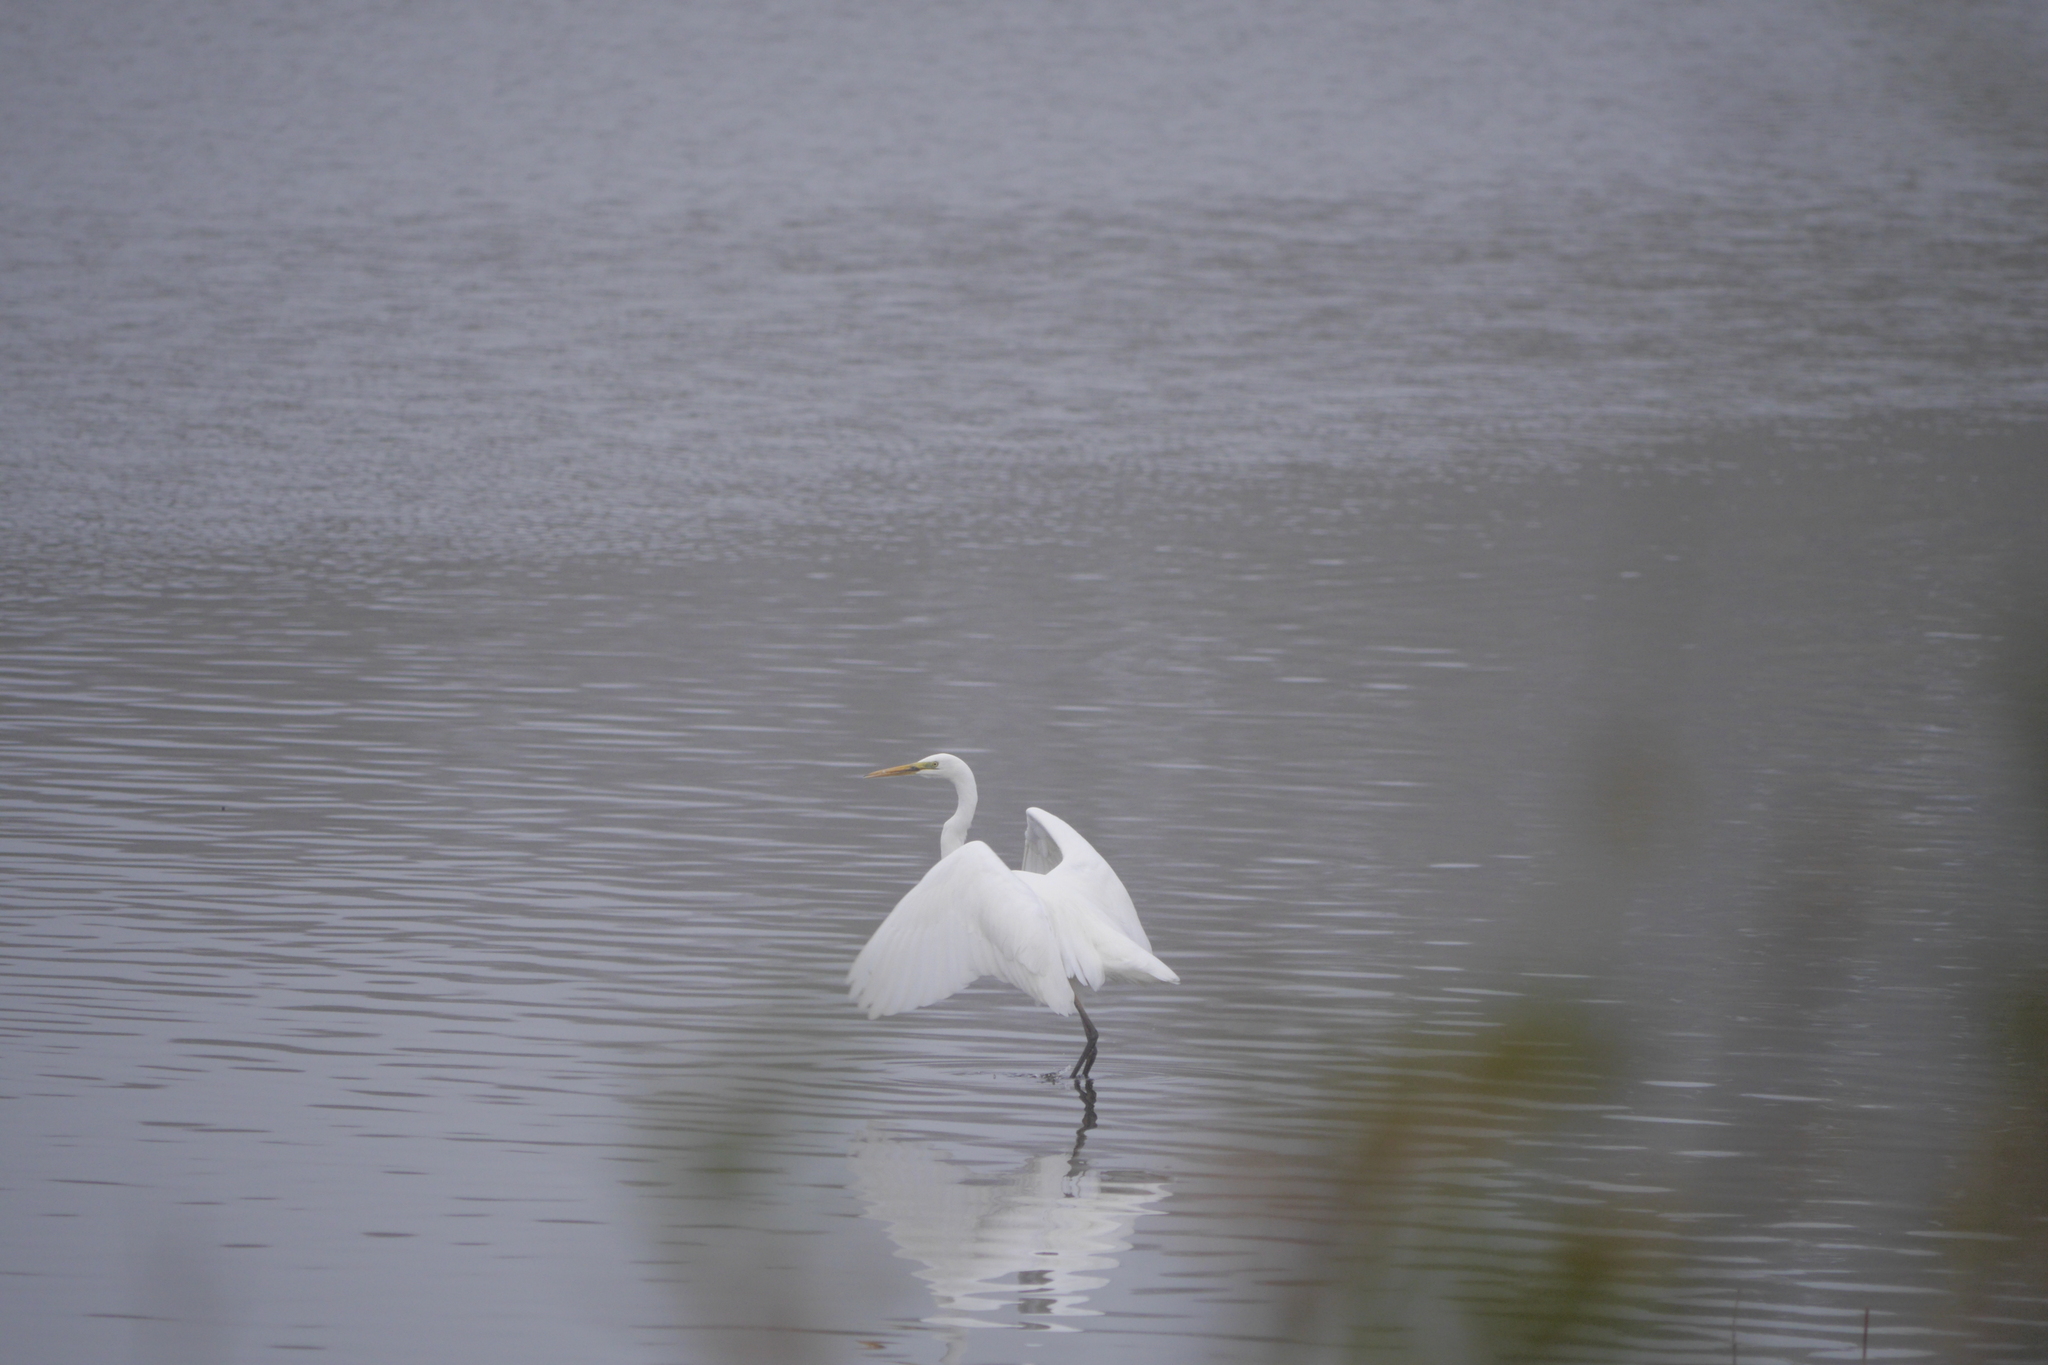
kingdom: Animalia
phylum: Chordata
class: Aves
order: Pelecaniformes
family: Ardeidae
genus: Ardea
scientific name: Ardea alba
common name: Great egret
